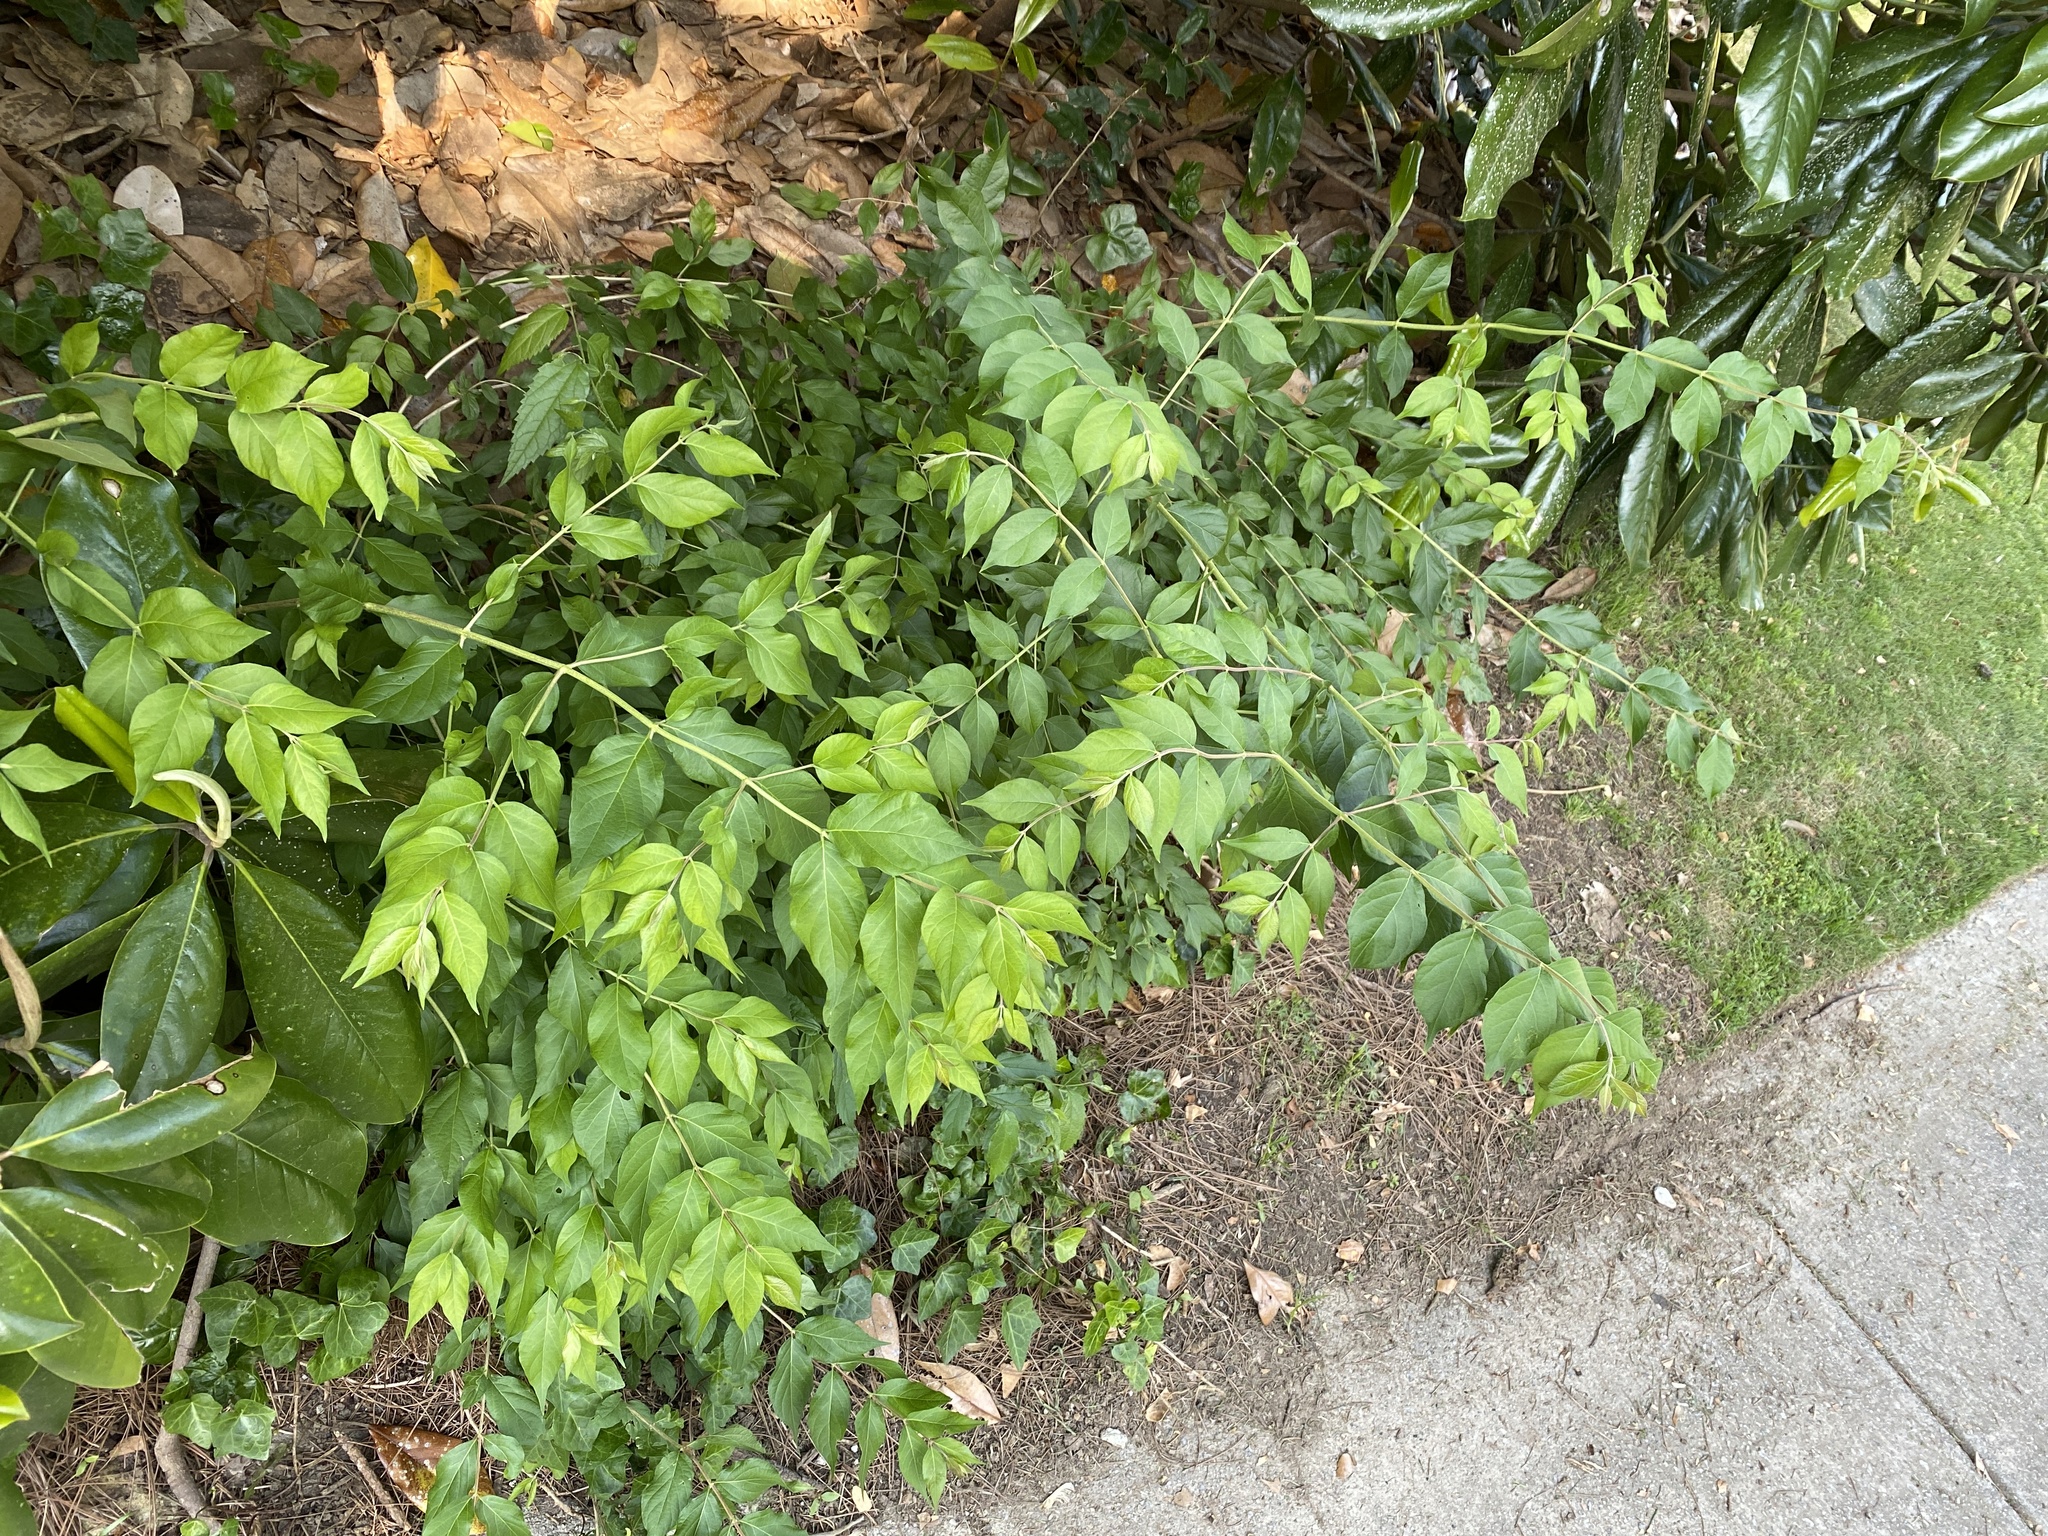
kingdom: Plantae
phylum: Tracheophyta
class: Magnoliopsida
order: Dipsacales
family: Caprifoliaceae
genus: Lonicera
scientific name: Lonicera maackii
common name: Amur honeysuckle
